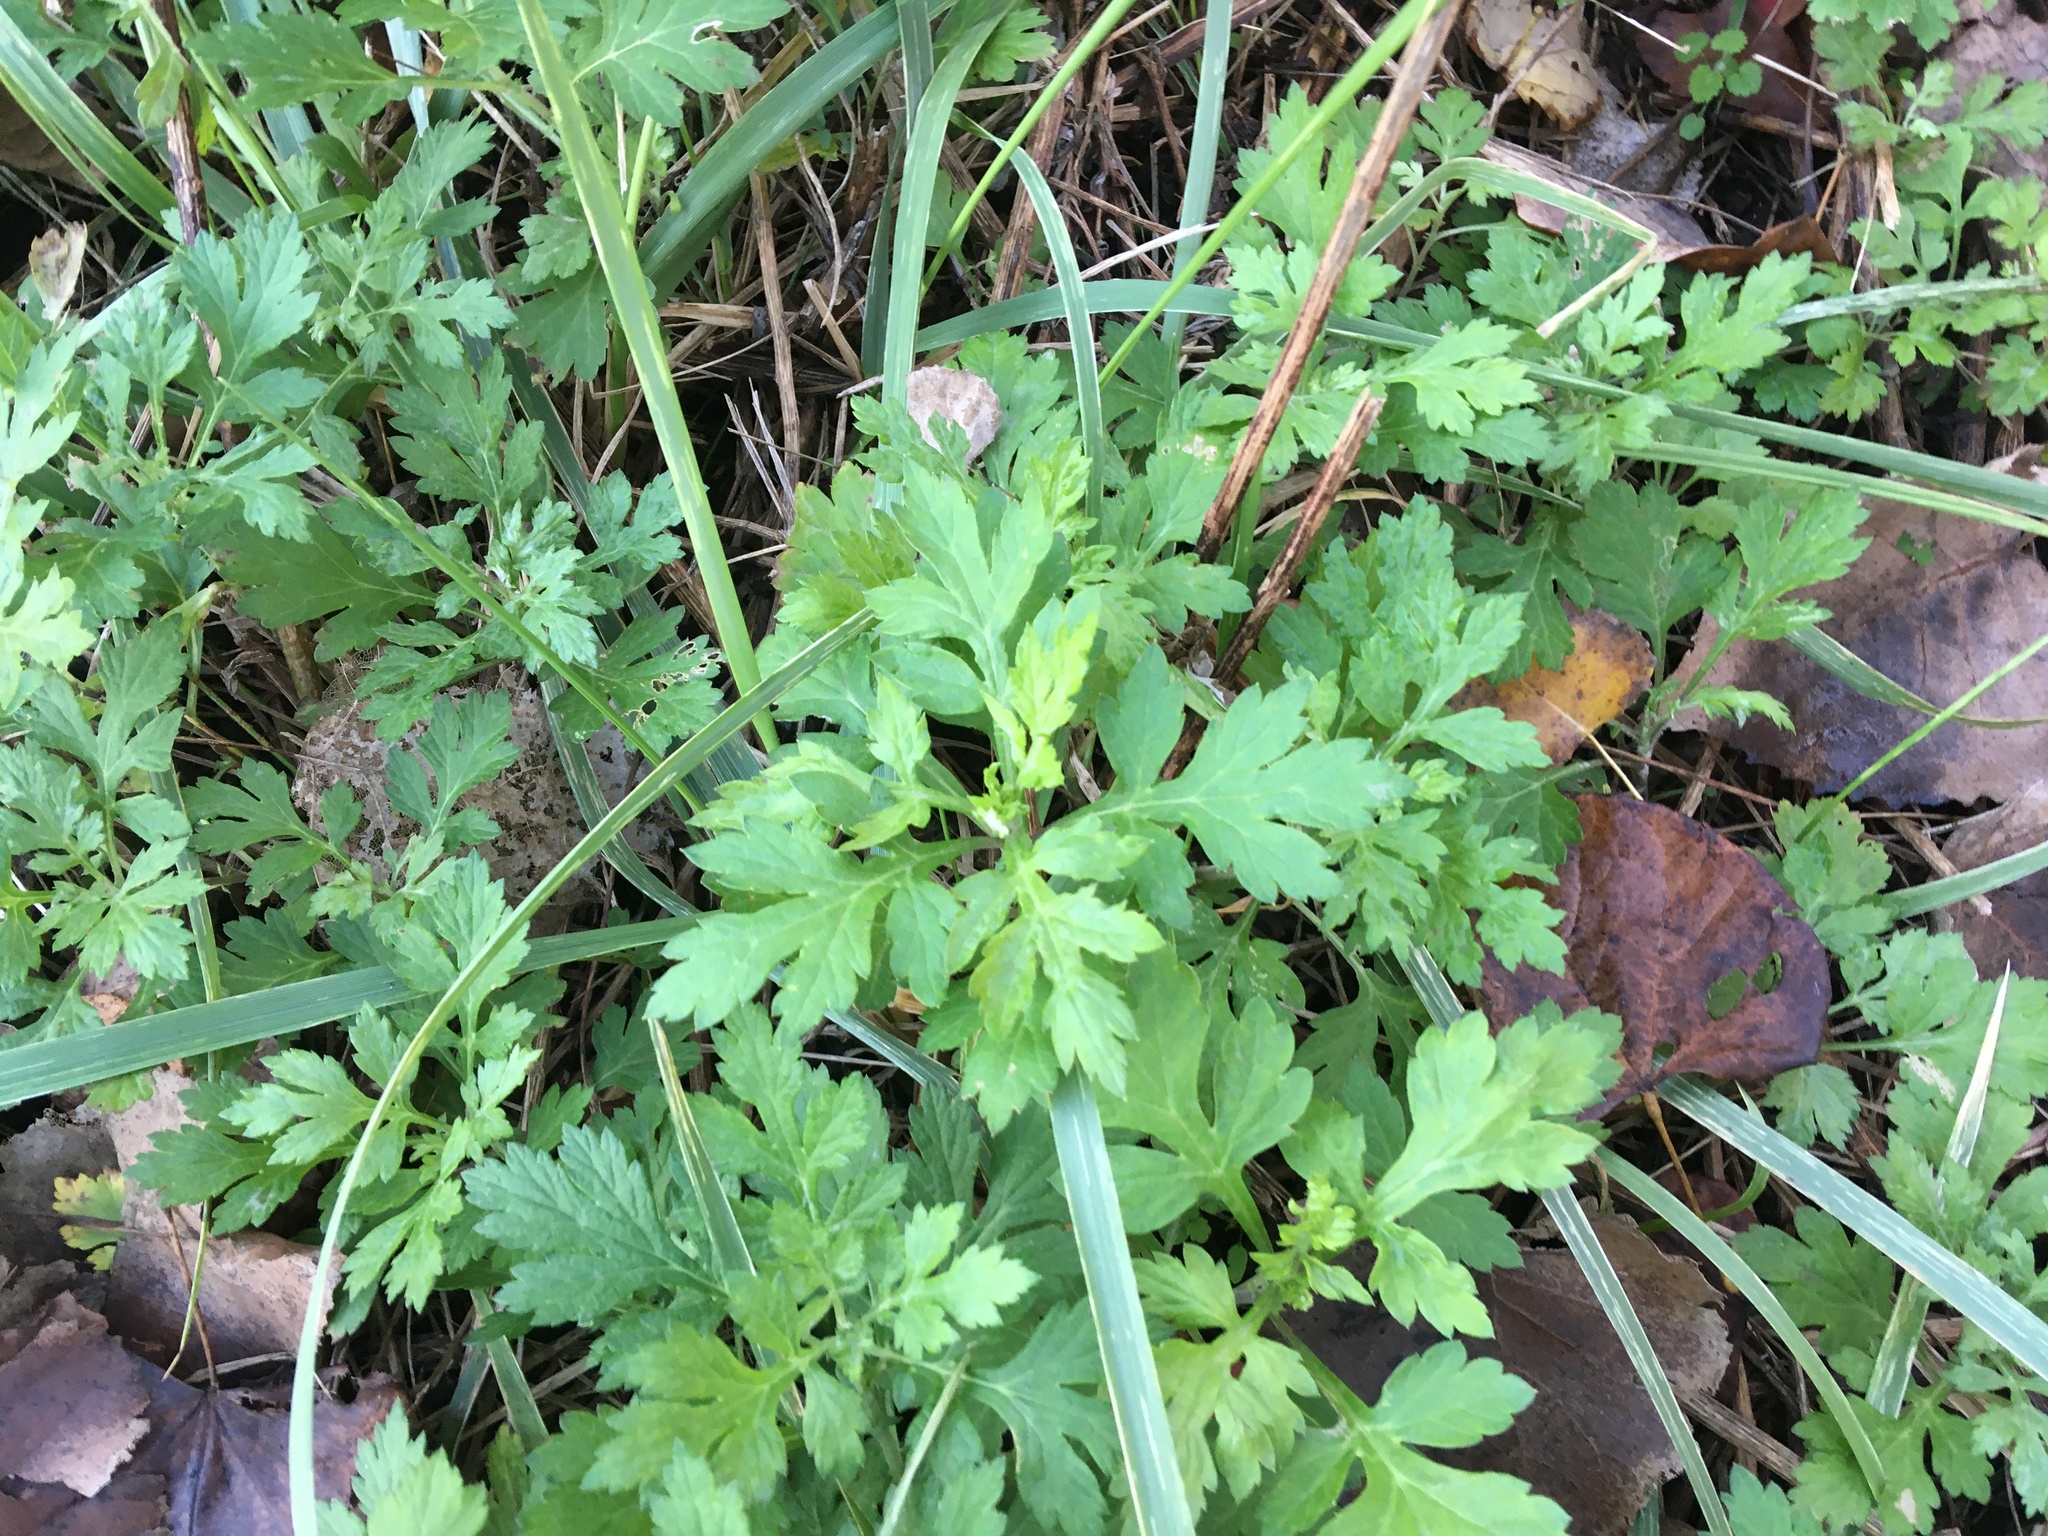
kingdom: Plantae
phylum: Tracheophyta
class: Magnoliopsida
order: Asterales
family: Asteraceae
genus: Artemisia
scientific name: Artemisia vulgaris
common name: Mugwort
